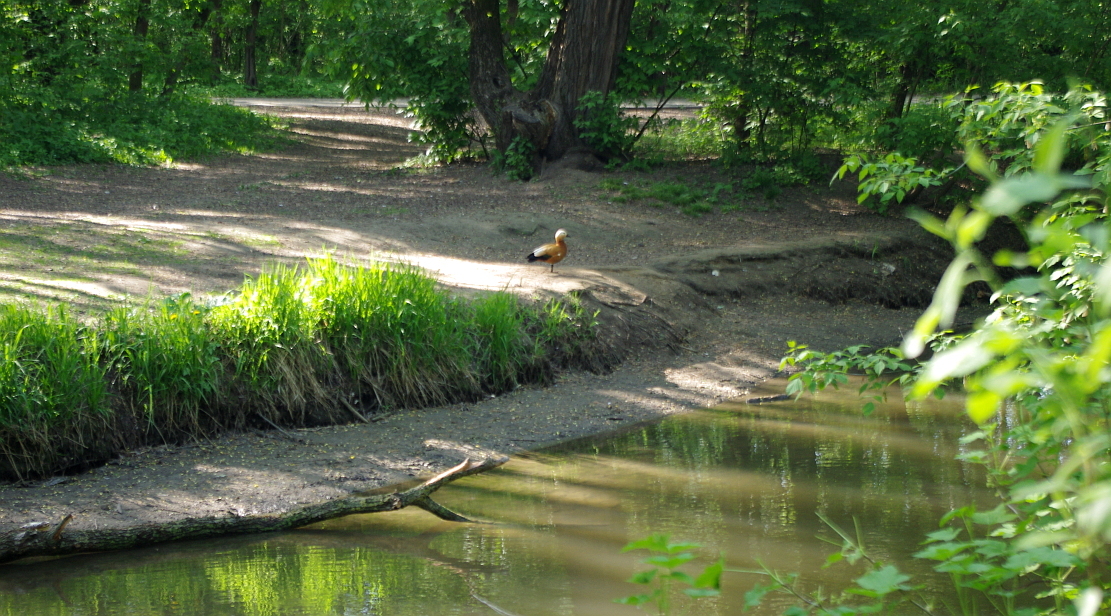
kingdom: Animalia
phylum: Chordata
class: Aves
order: Anseriformes
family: Anatidae
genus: Tadorna
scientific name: Tadorna ferruginea
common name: Ruddy shelduck
